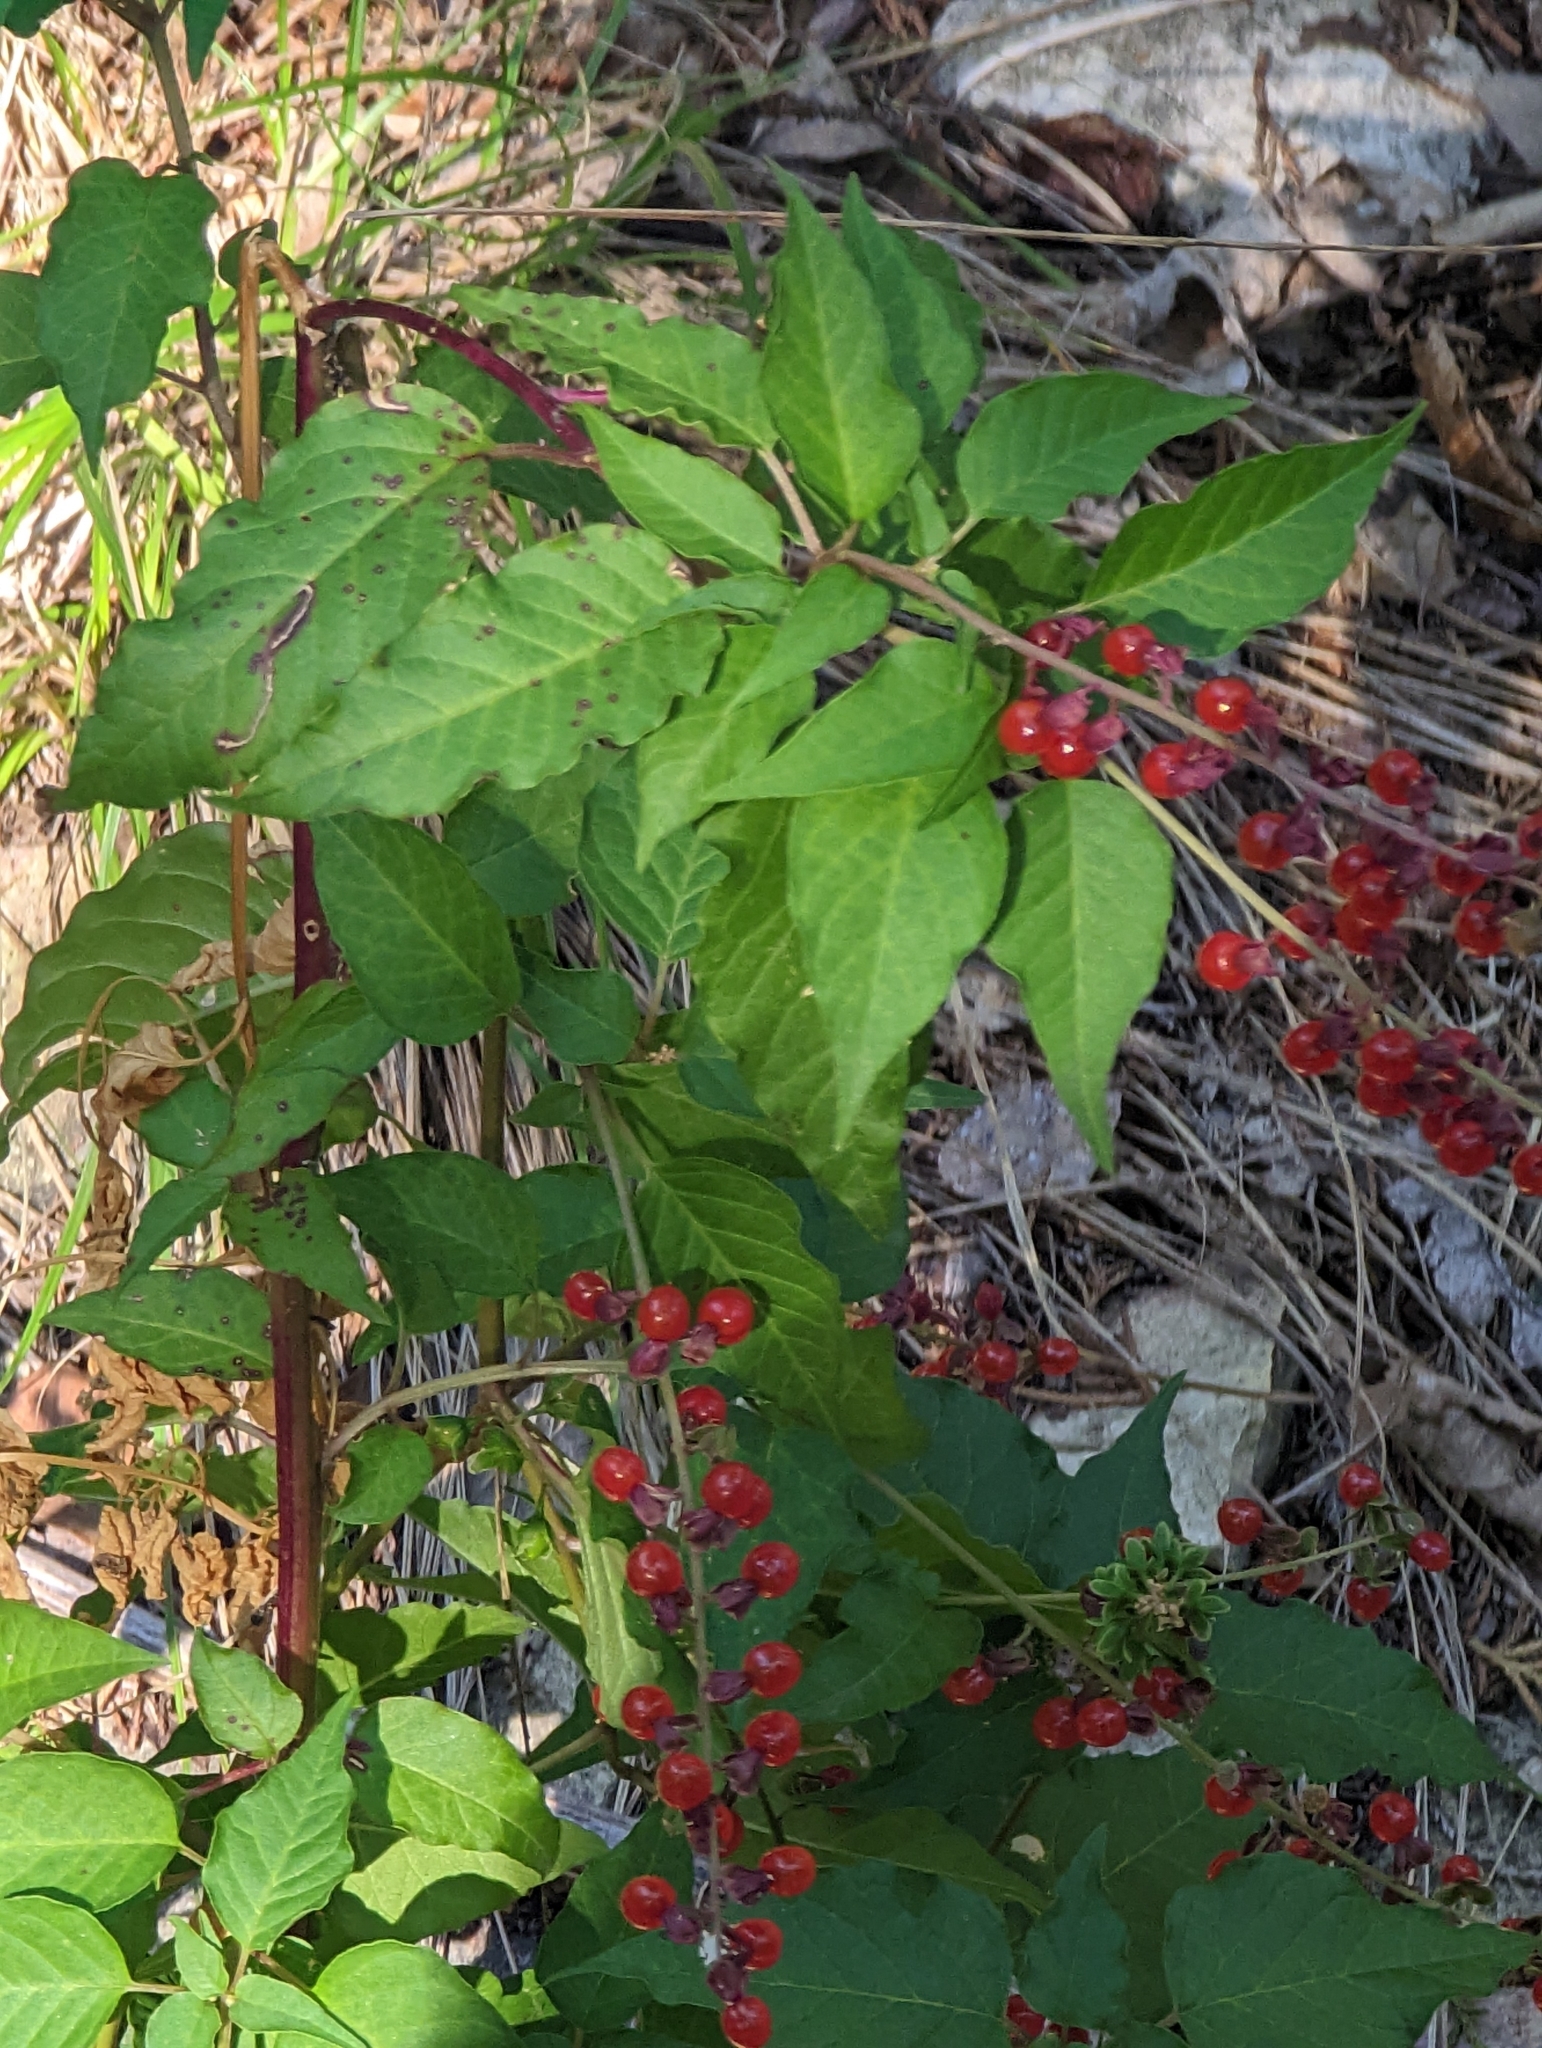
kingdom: Plantae
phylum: Tracheophyta
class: Magnoliopsida
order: Caryophyllales
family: Phytolaccaceae
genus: Rivina
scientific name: Rivina humilis
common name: Rougeplant
